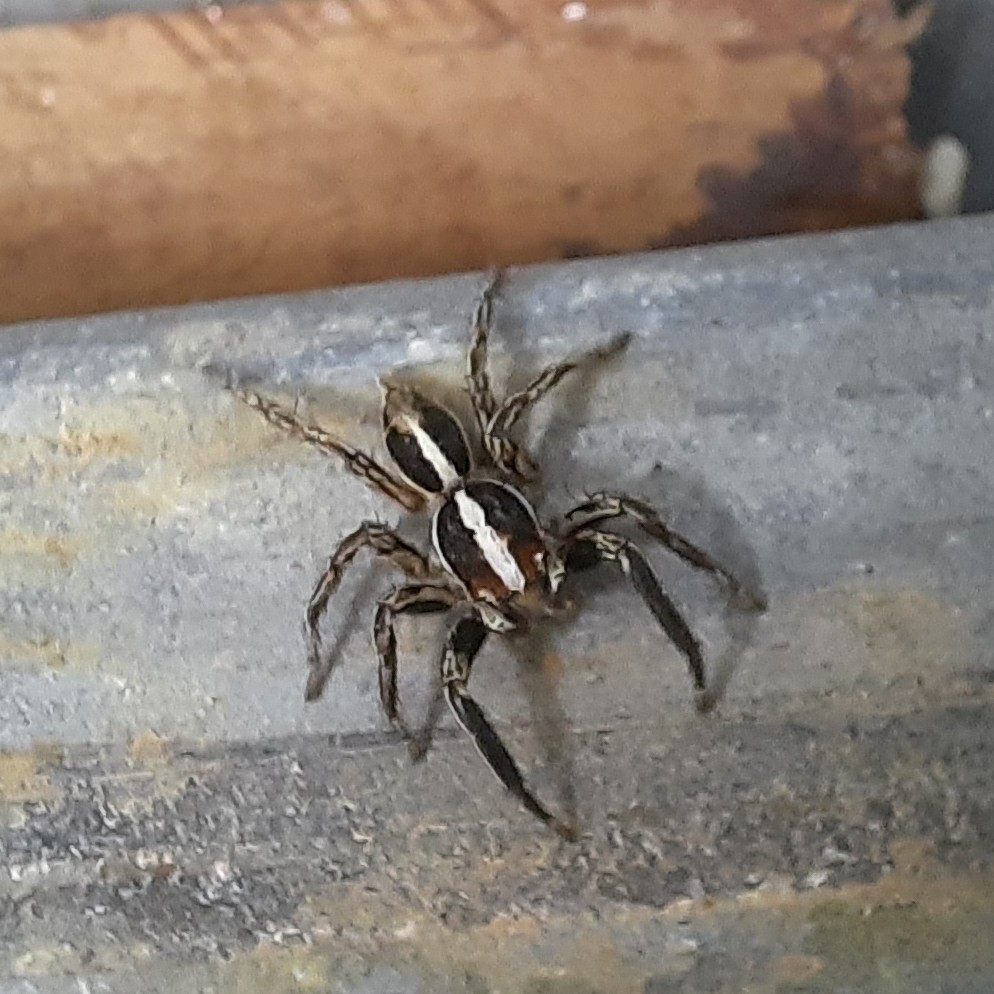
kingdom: Animalia
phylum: Arthropoda
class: Arachnida
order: Araneae
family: Salticidae
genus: Plexippus
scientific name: Plexippus paykulli
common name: Pantropical jumper
